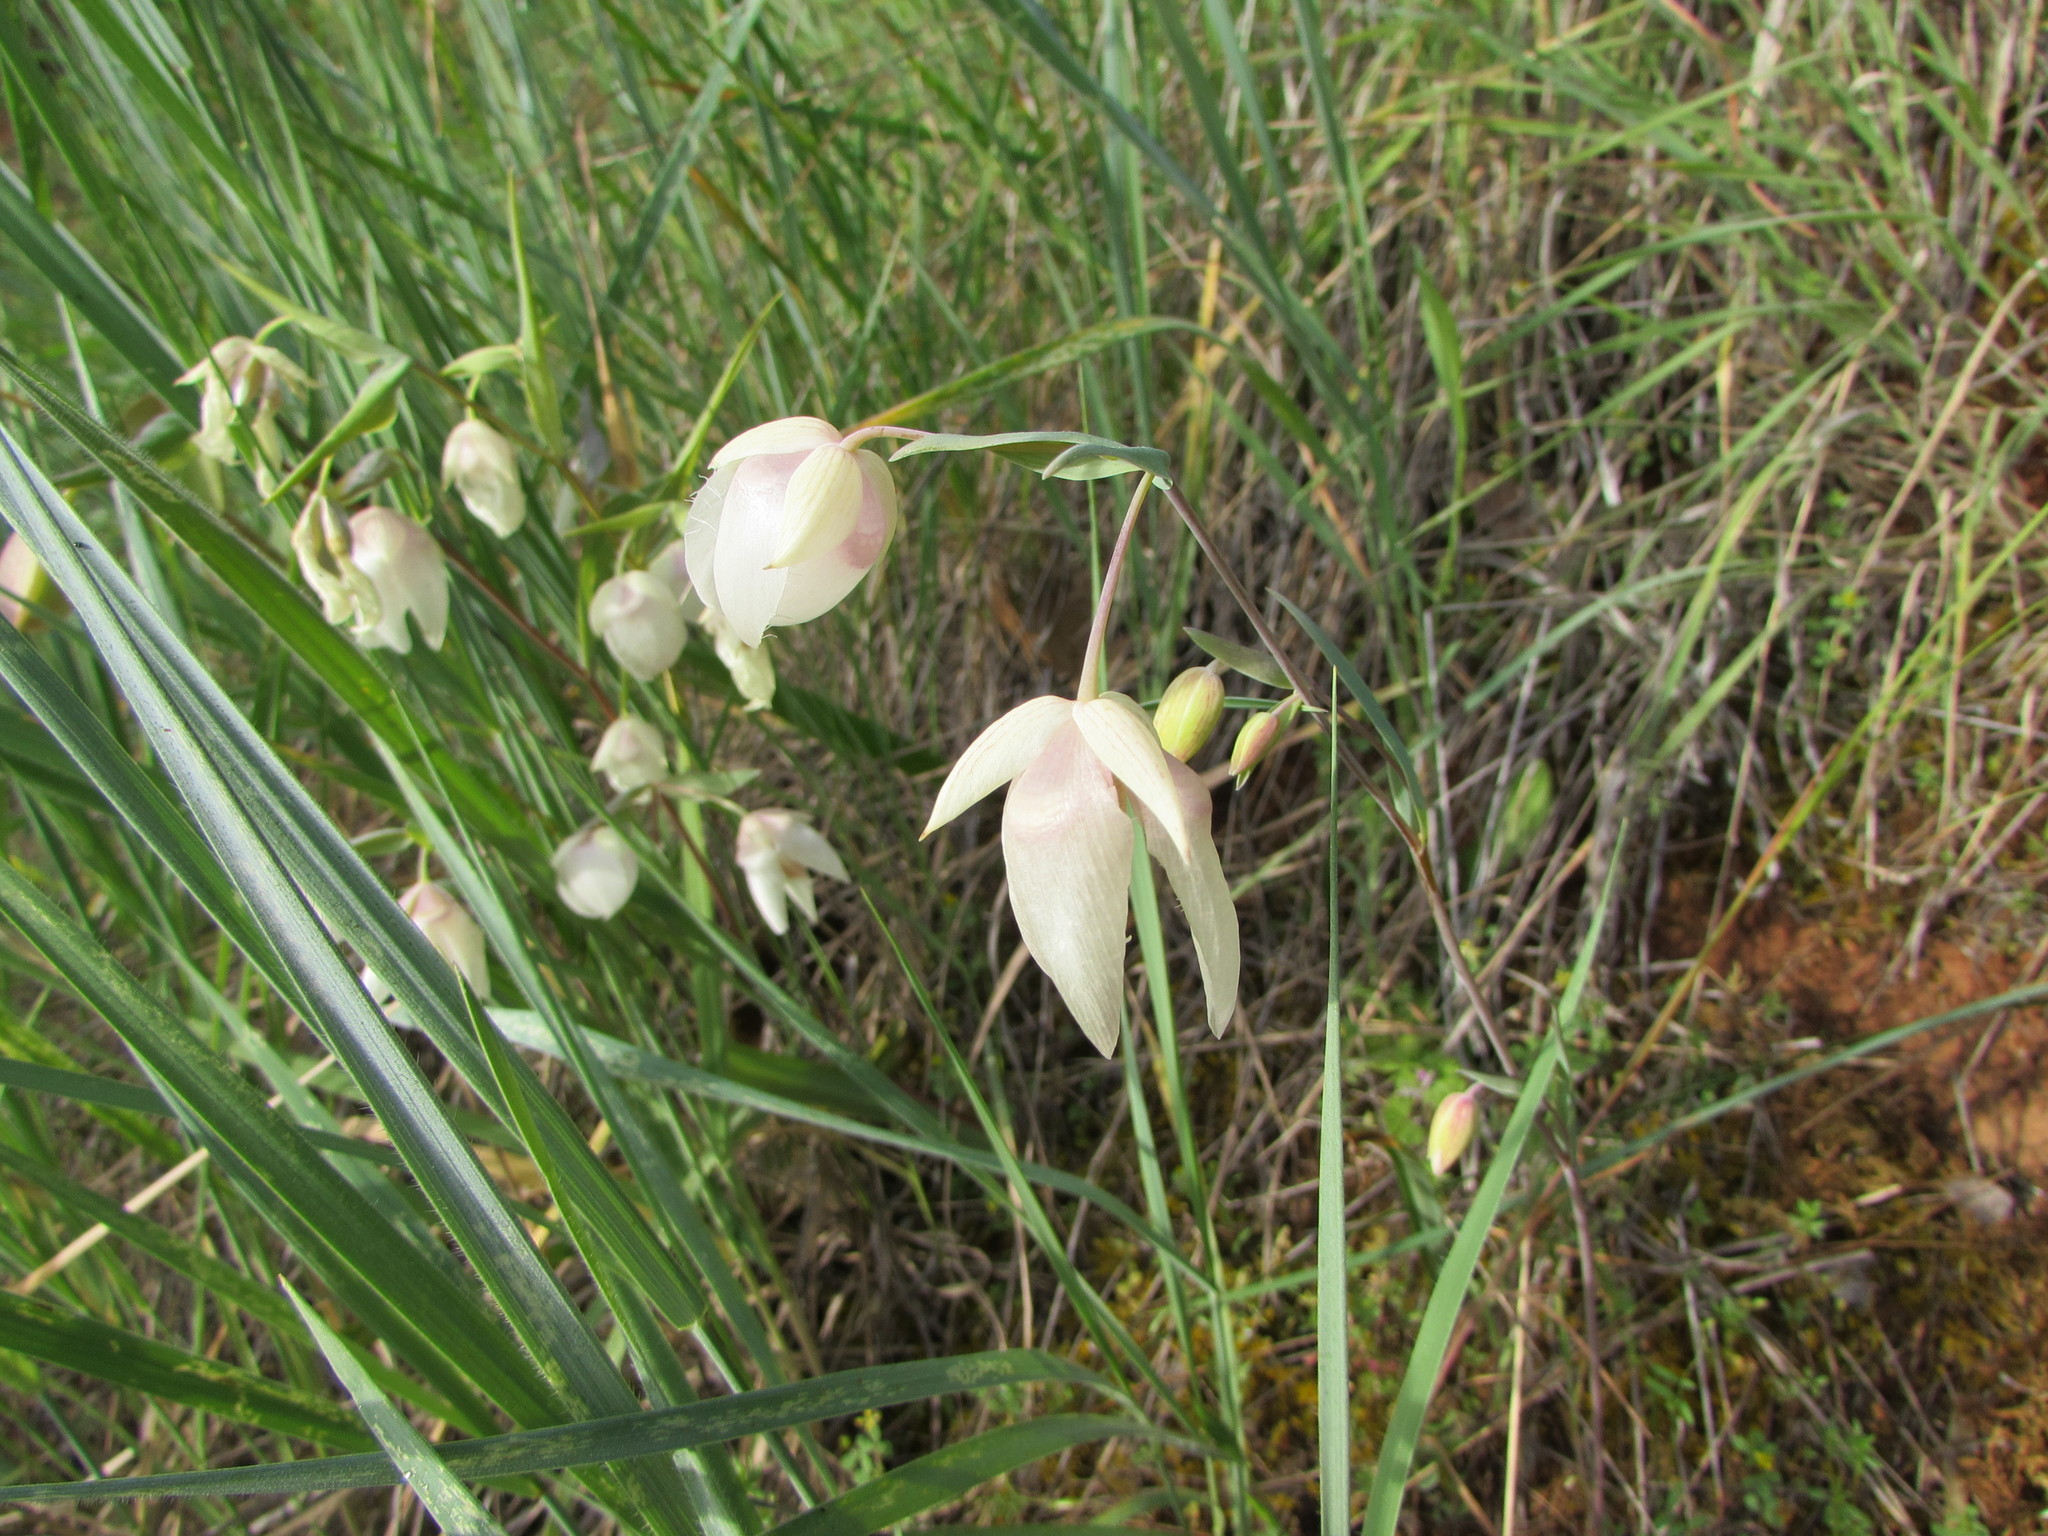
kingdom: Plantae
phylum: Tracheophyta
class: Liliopsida
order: Liliales
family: Liliaceae
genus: Calochortus
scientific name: Calochortus albus
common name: Fairy-lantern
